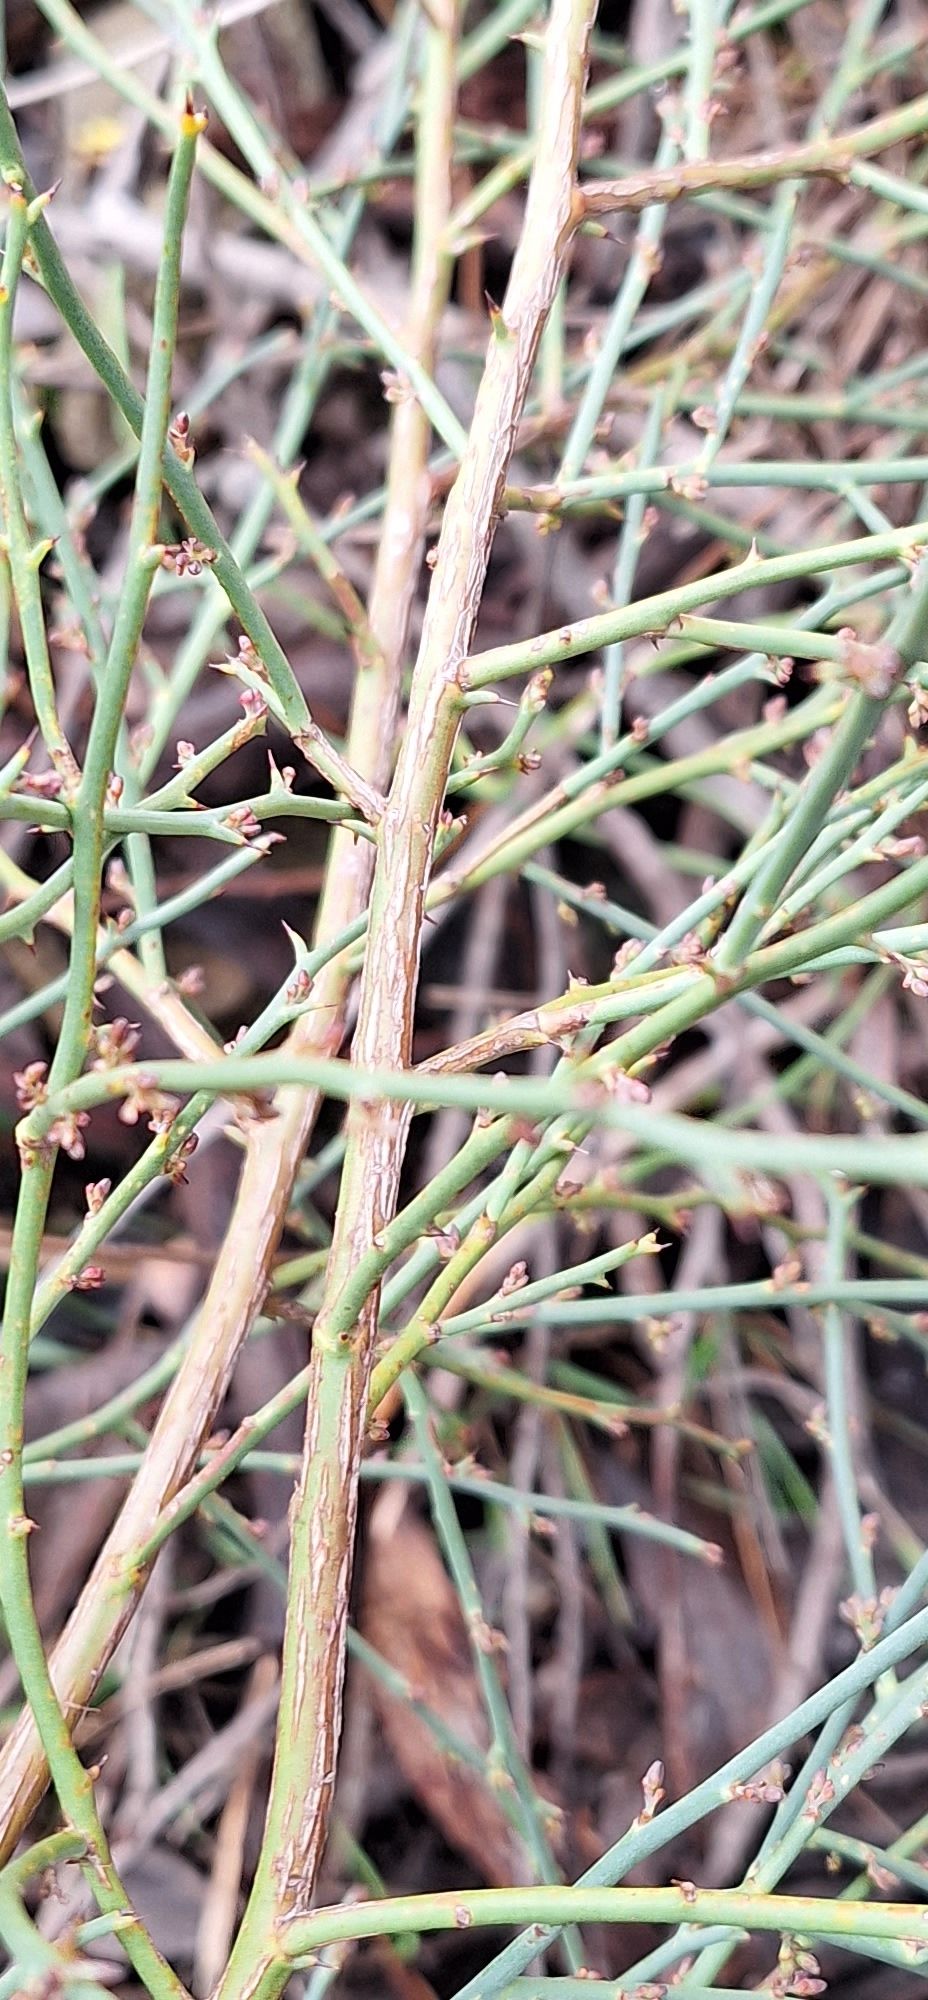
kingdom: Plantae
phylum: Tracheophyta
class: Magnoliopsida
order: Fabales
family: Fabaceae
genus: Daviesia
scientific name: Daviesia brevifolia
